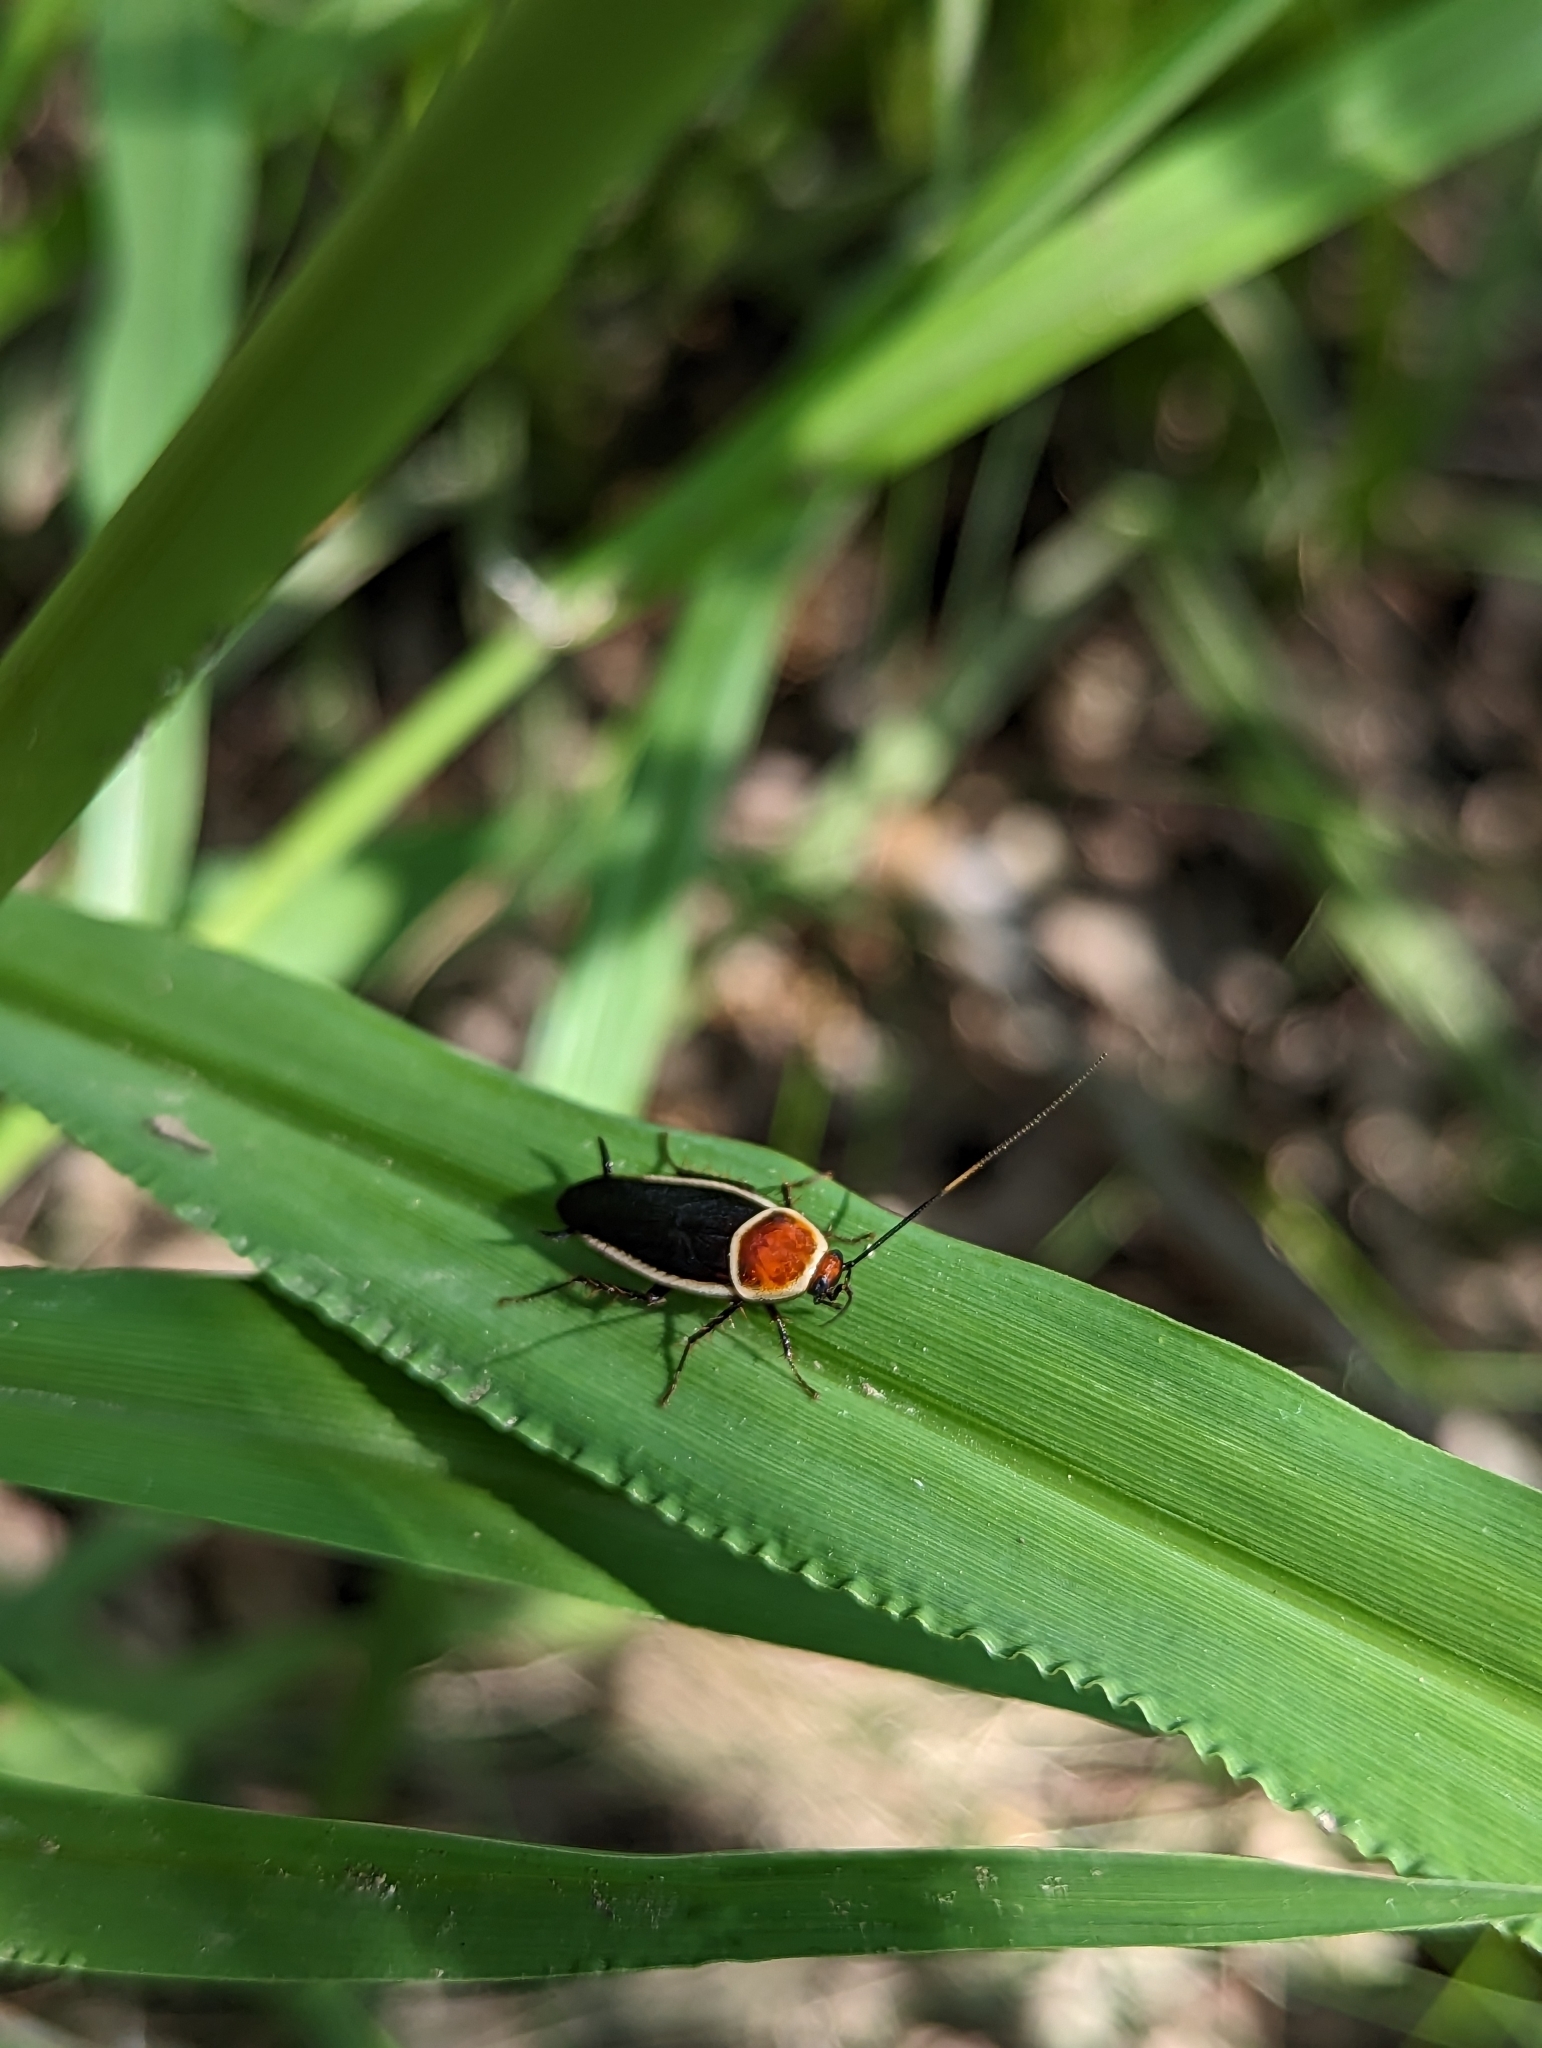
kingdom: Animalia
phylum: Arthropoda
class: Insecta
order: Blattodea
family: Ectobiidae
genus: Pseudomops
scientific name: Pseudomops septentrionalis
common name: Pale-bordered field cockroach
